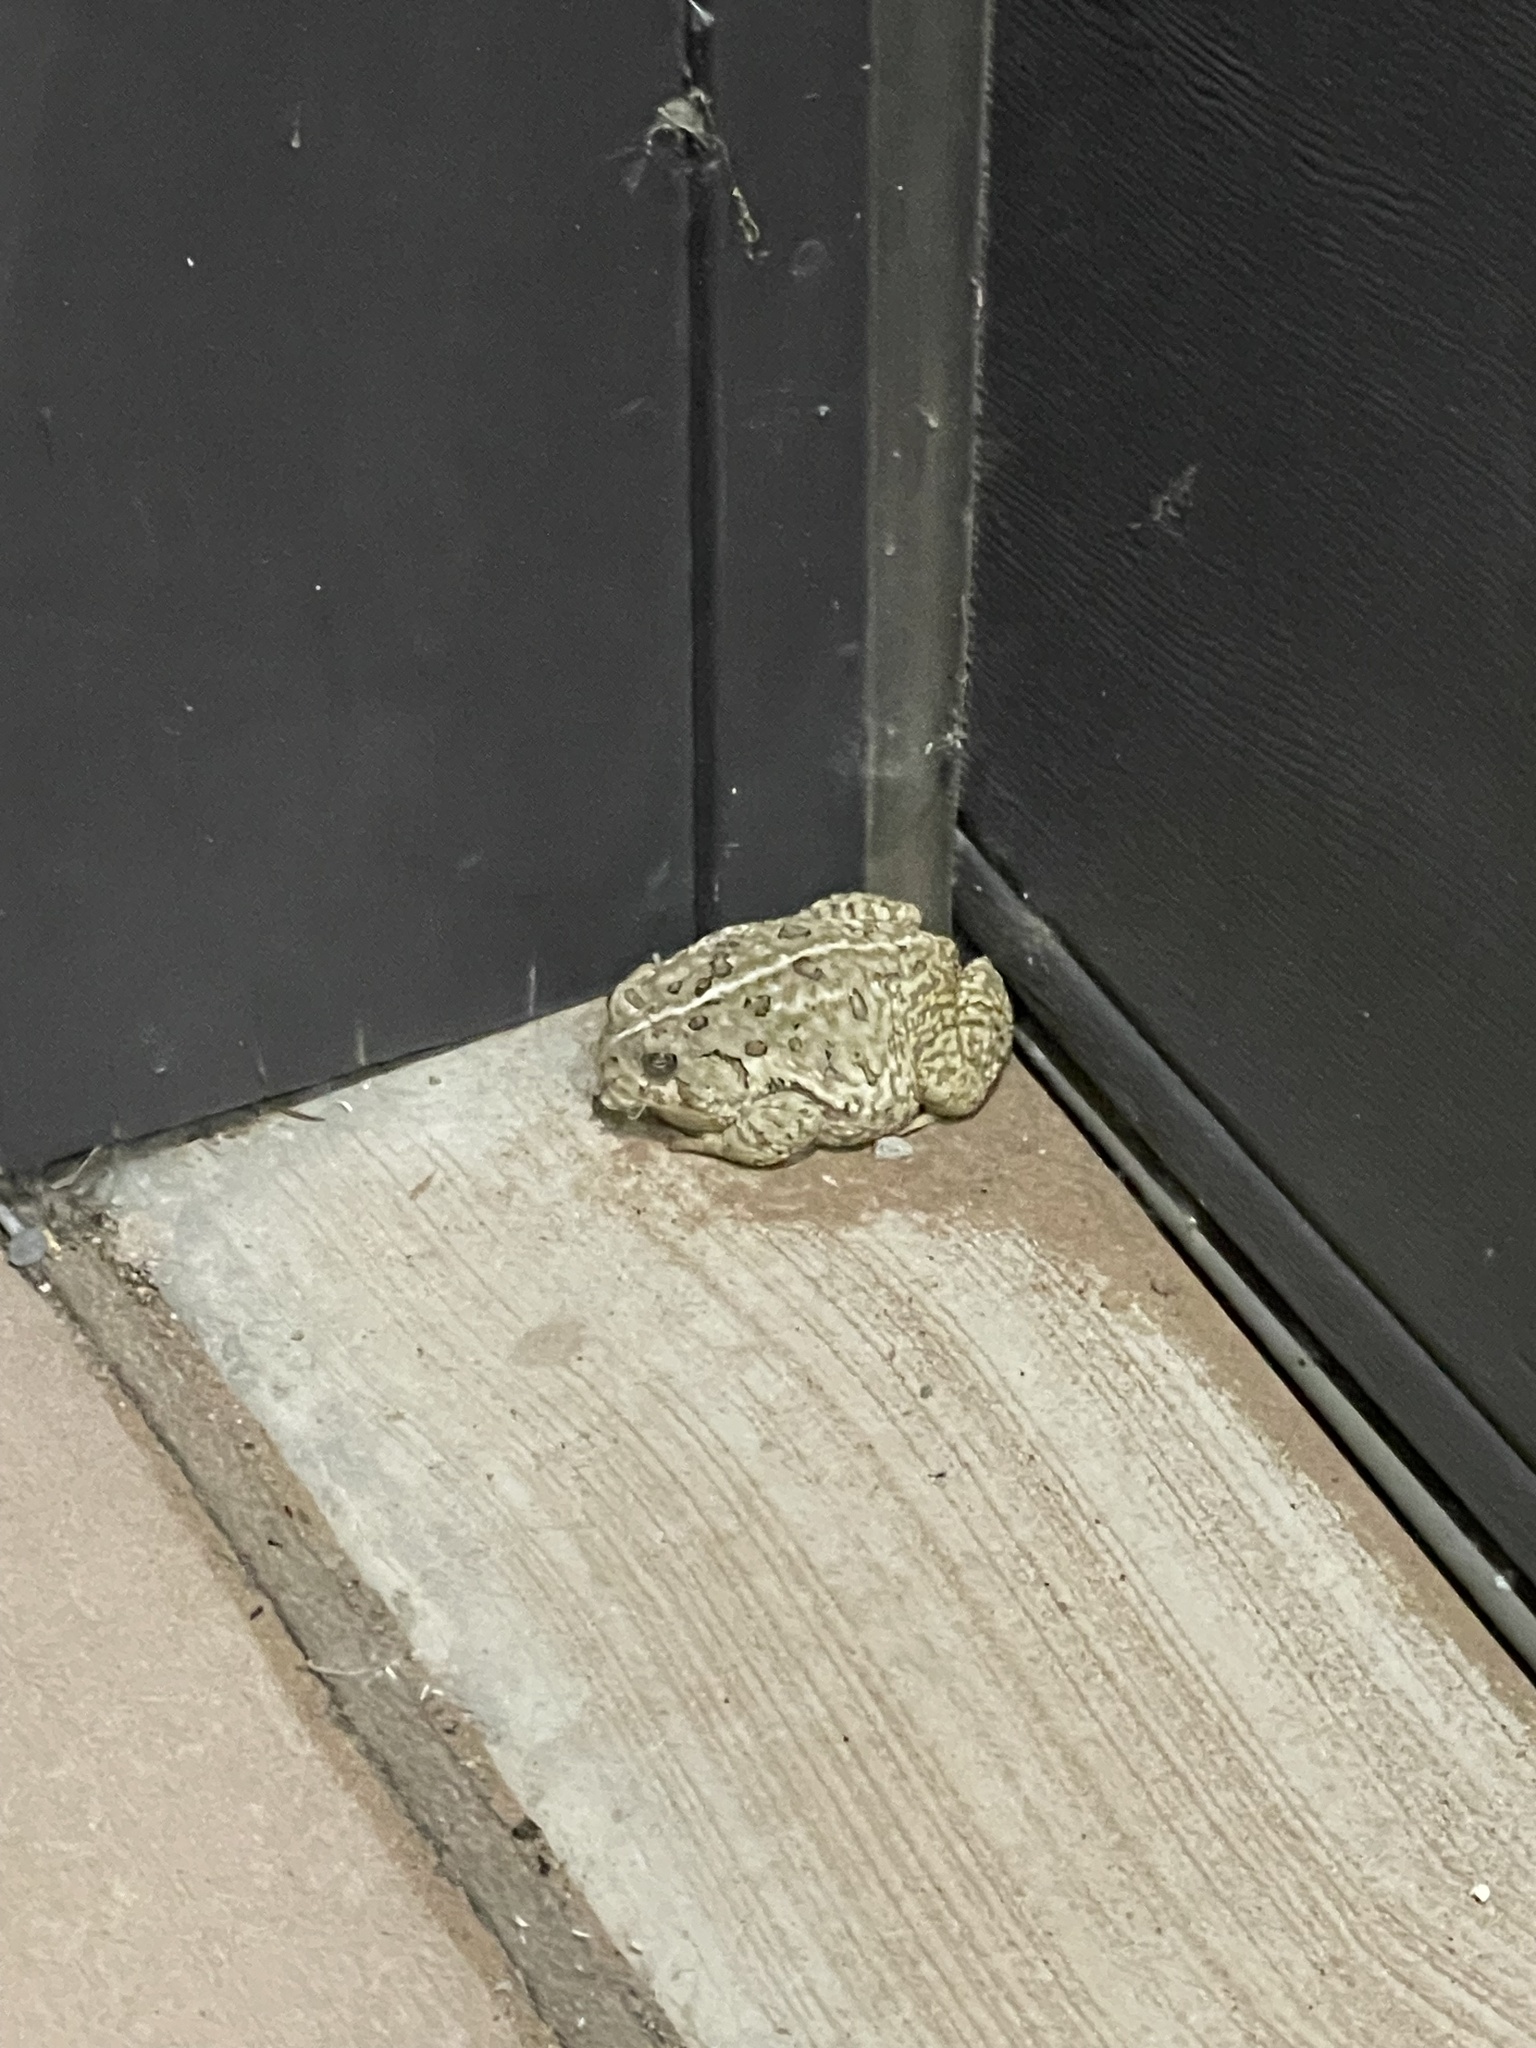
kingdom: Animalia
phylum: Chordata
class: Amphibia
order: Anura
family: Bufonidae
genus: Anaxyrus
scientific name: Anaxyrus woodhousii
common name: Woodhouse's toad
